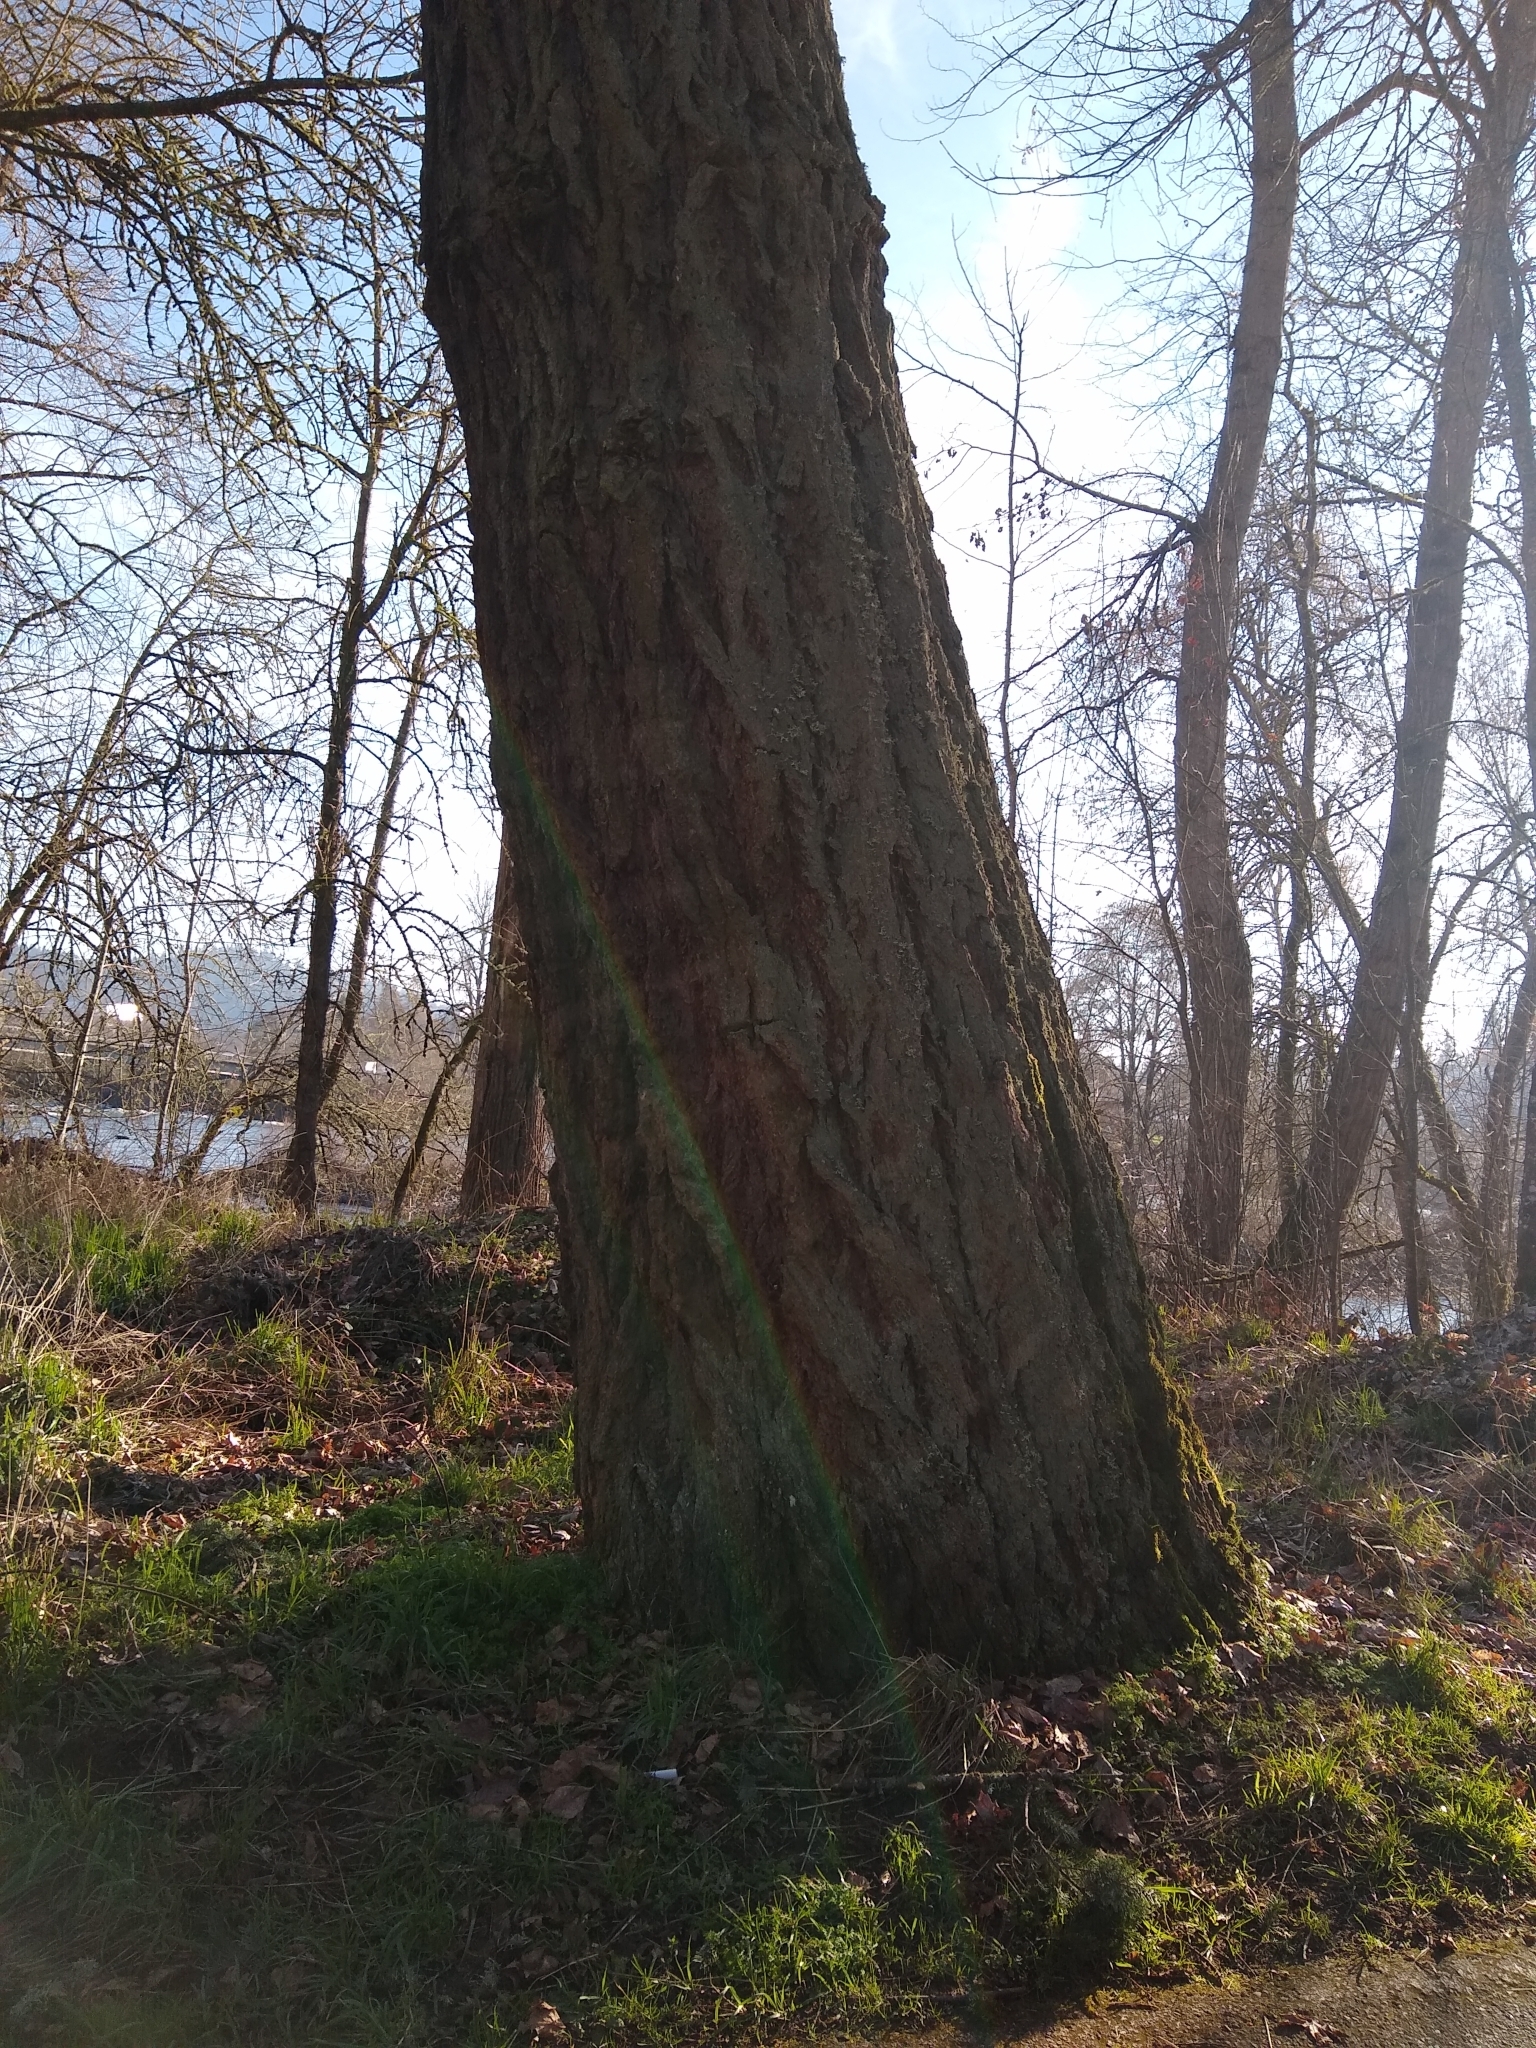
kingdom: Plantae
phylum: Tracheophyta
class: Pinopsida
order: Pinales
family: Pinaceae
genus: Pseudotsuga
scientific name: Pseudotsuga menziesii
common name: Douglas fir
